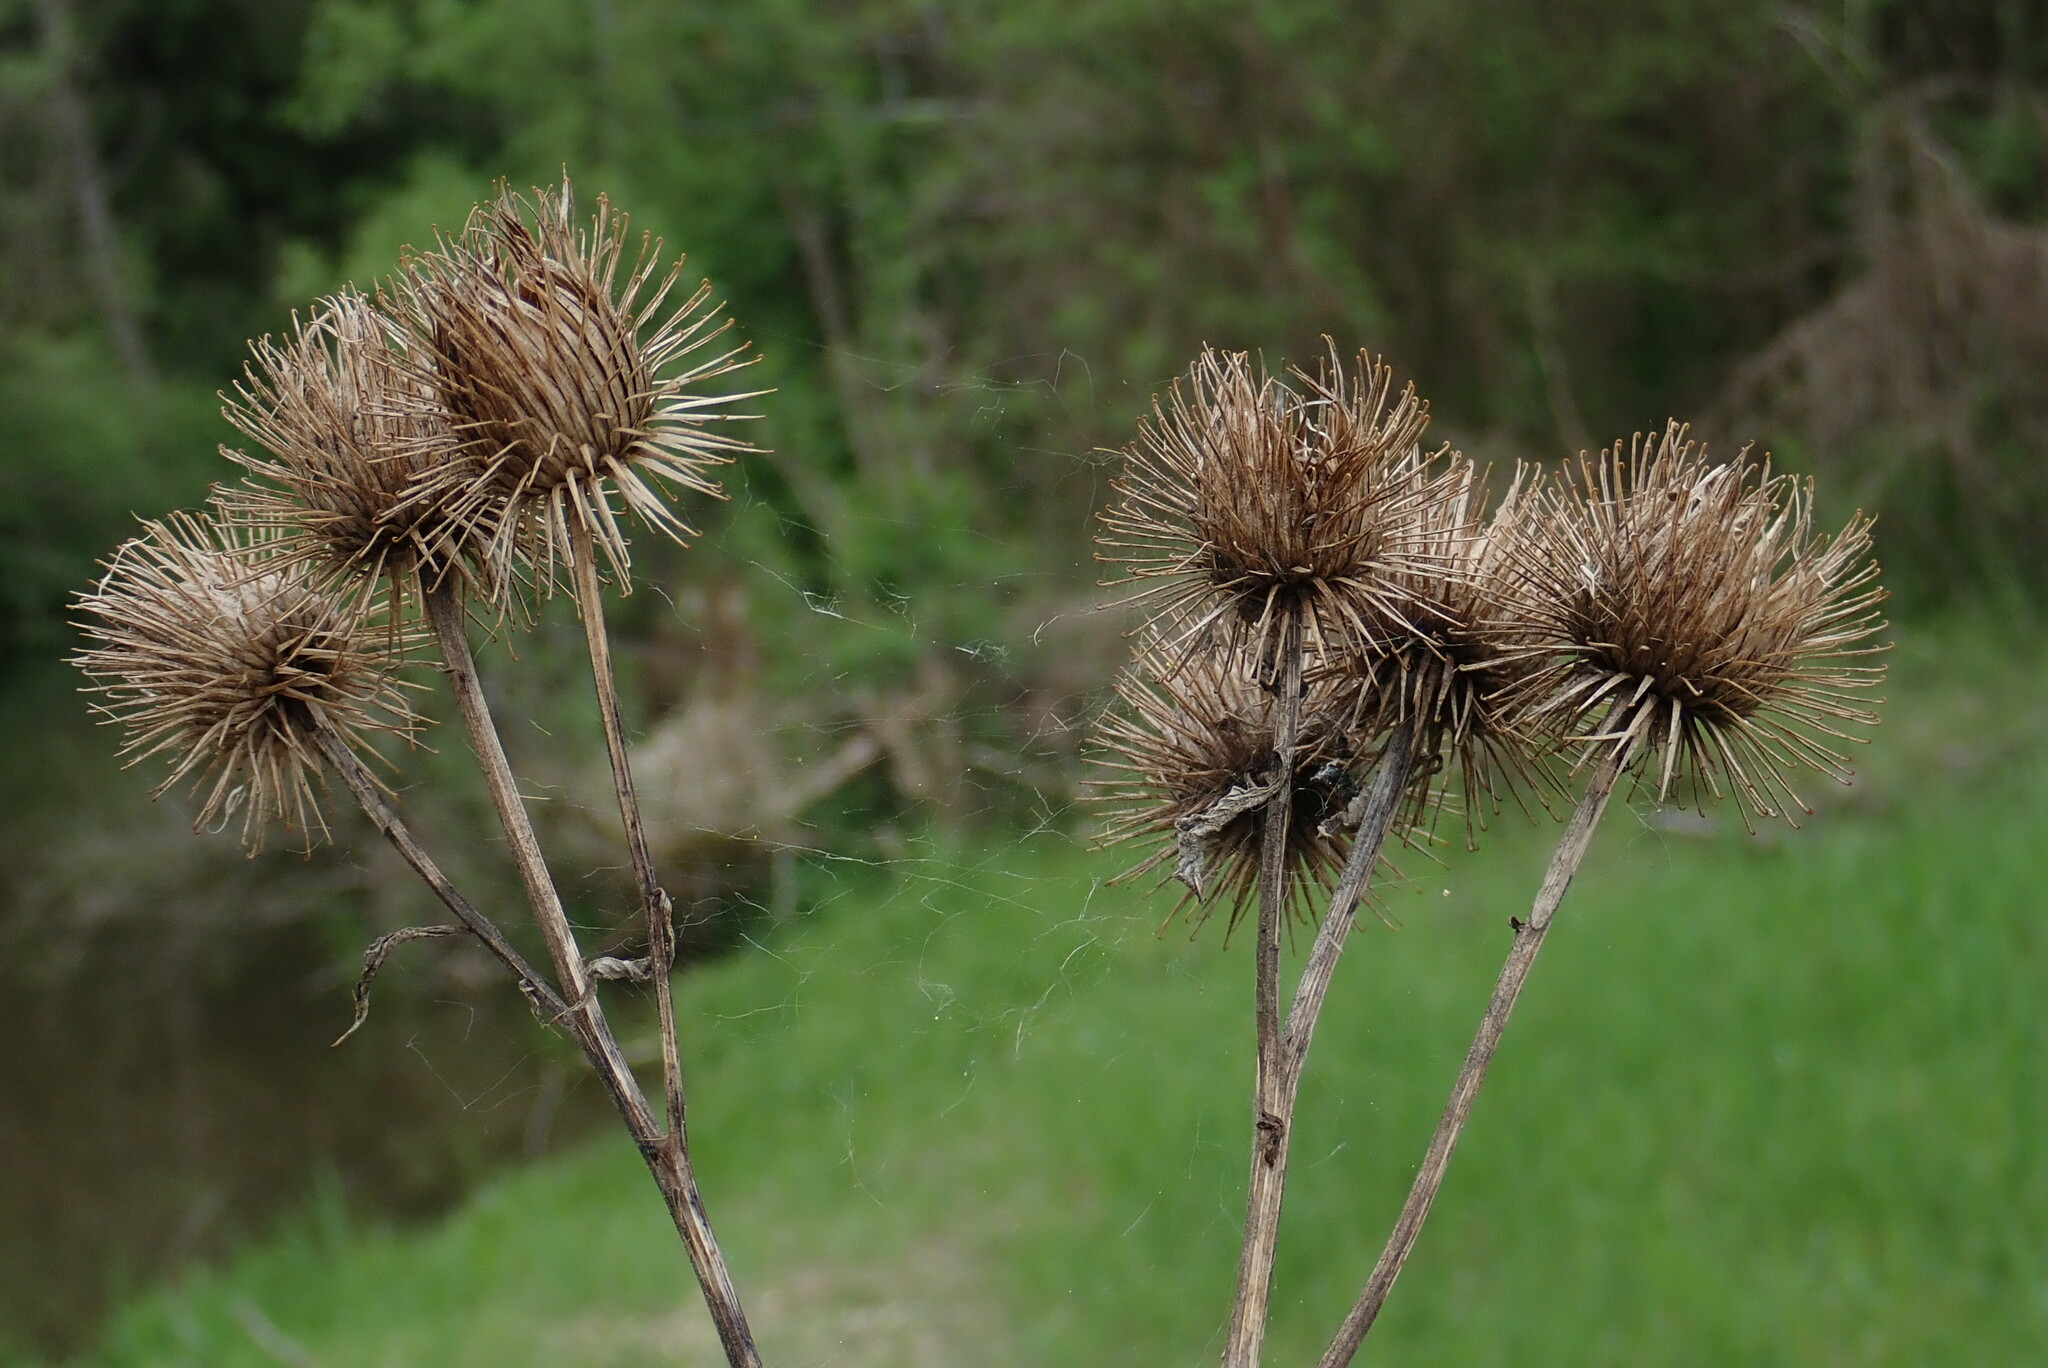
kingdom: Plantae
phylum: Tracheophyta
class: Magnoliopsida
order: Asterales
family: Asteraceae
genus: Arctium
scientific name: Arctium lappa
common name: Greater burdock
